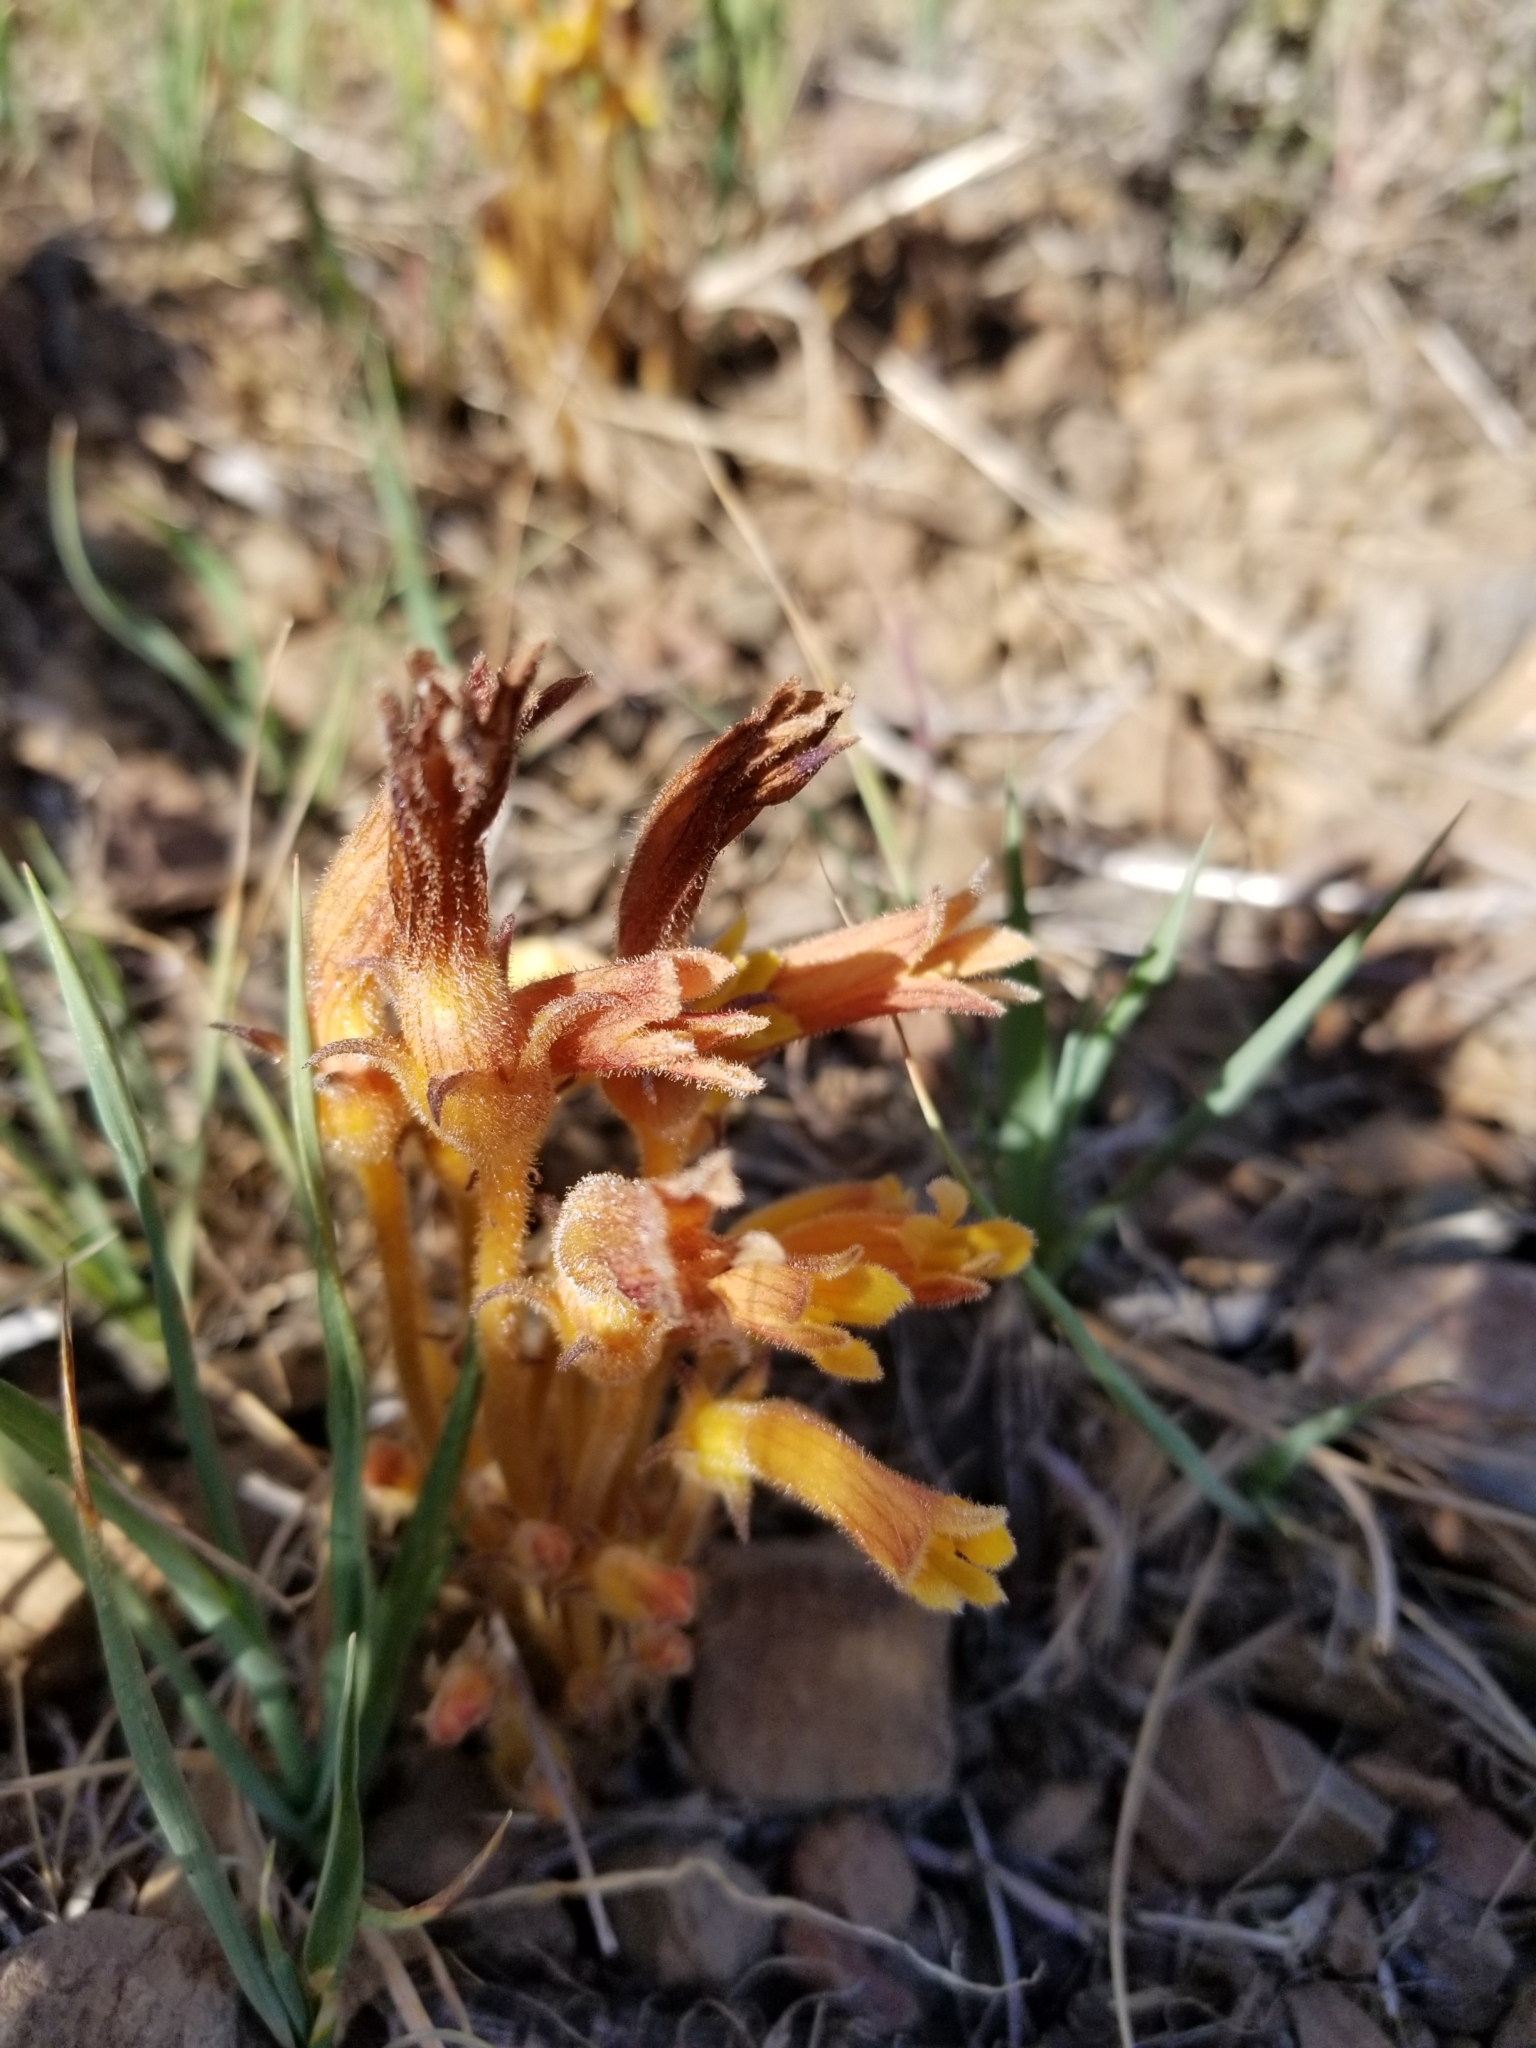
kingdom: Plantae
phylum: Tracheophyta
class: Magnoliopsida
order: Lamiales
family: Orobanchaceae
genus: Aphyllon
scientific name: Aphyllon franciscanum
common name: San francisco broomrape
